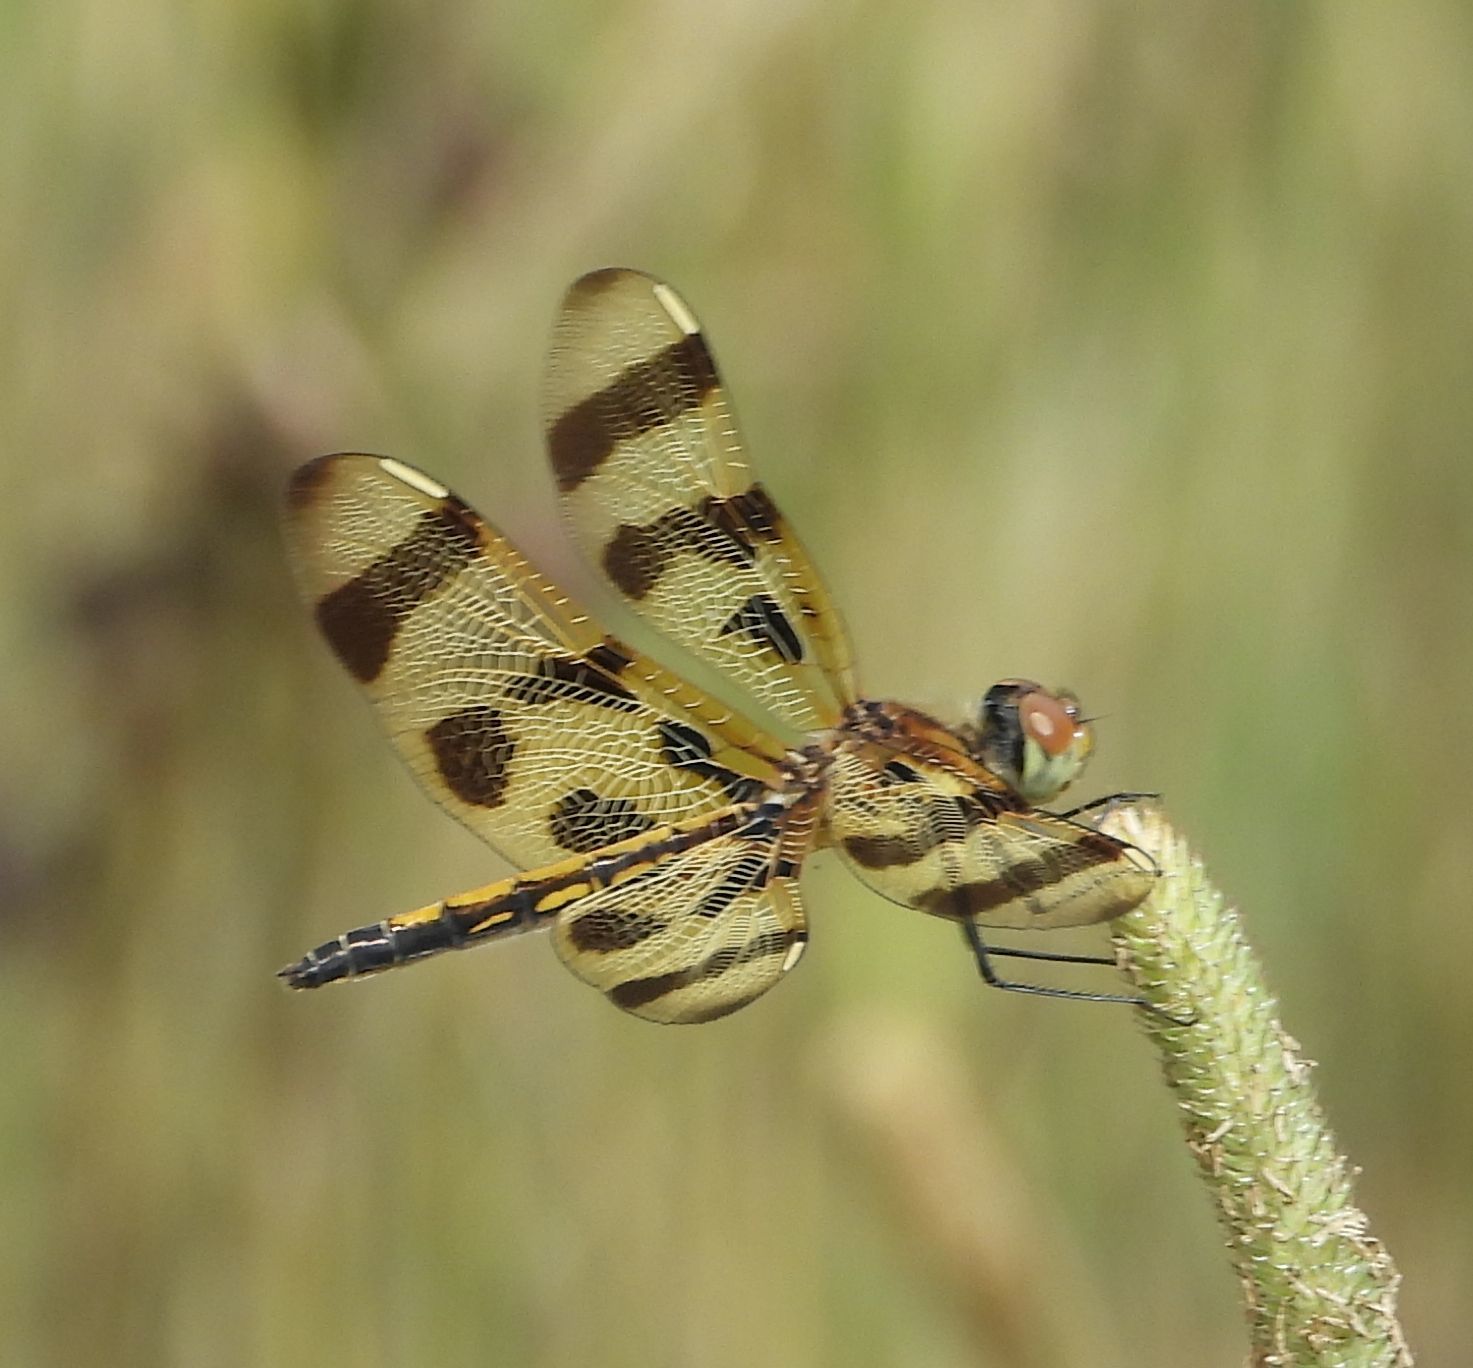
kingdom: Animalia
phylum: Arthropoda
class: Insecta
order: Odonata
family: Libellulidae
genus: Celithemis
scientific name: Celithemis eponina
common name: Halloween pennant
